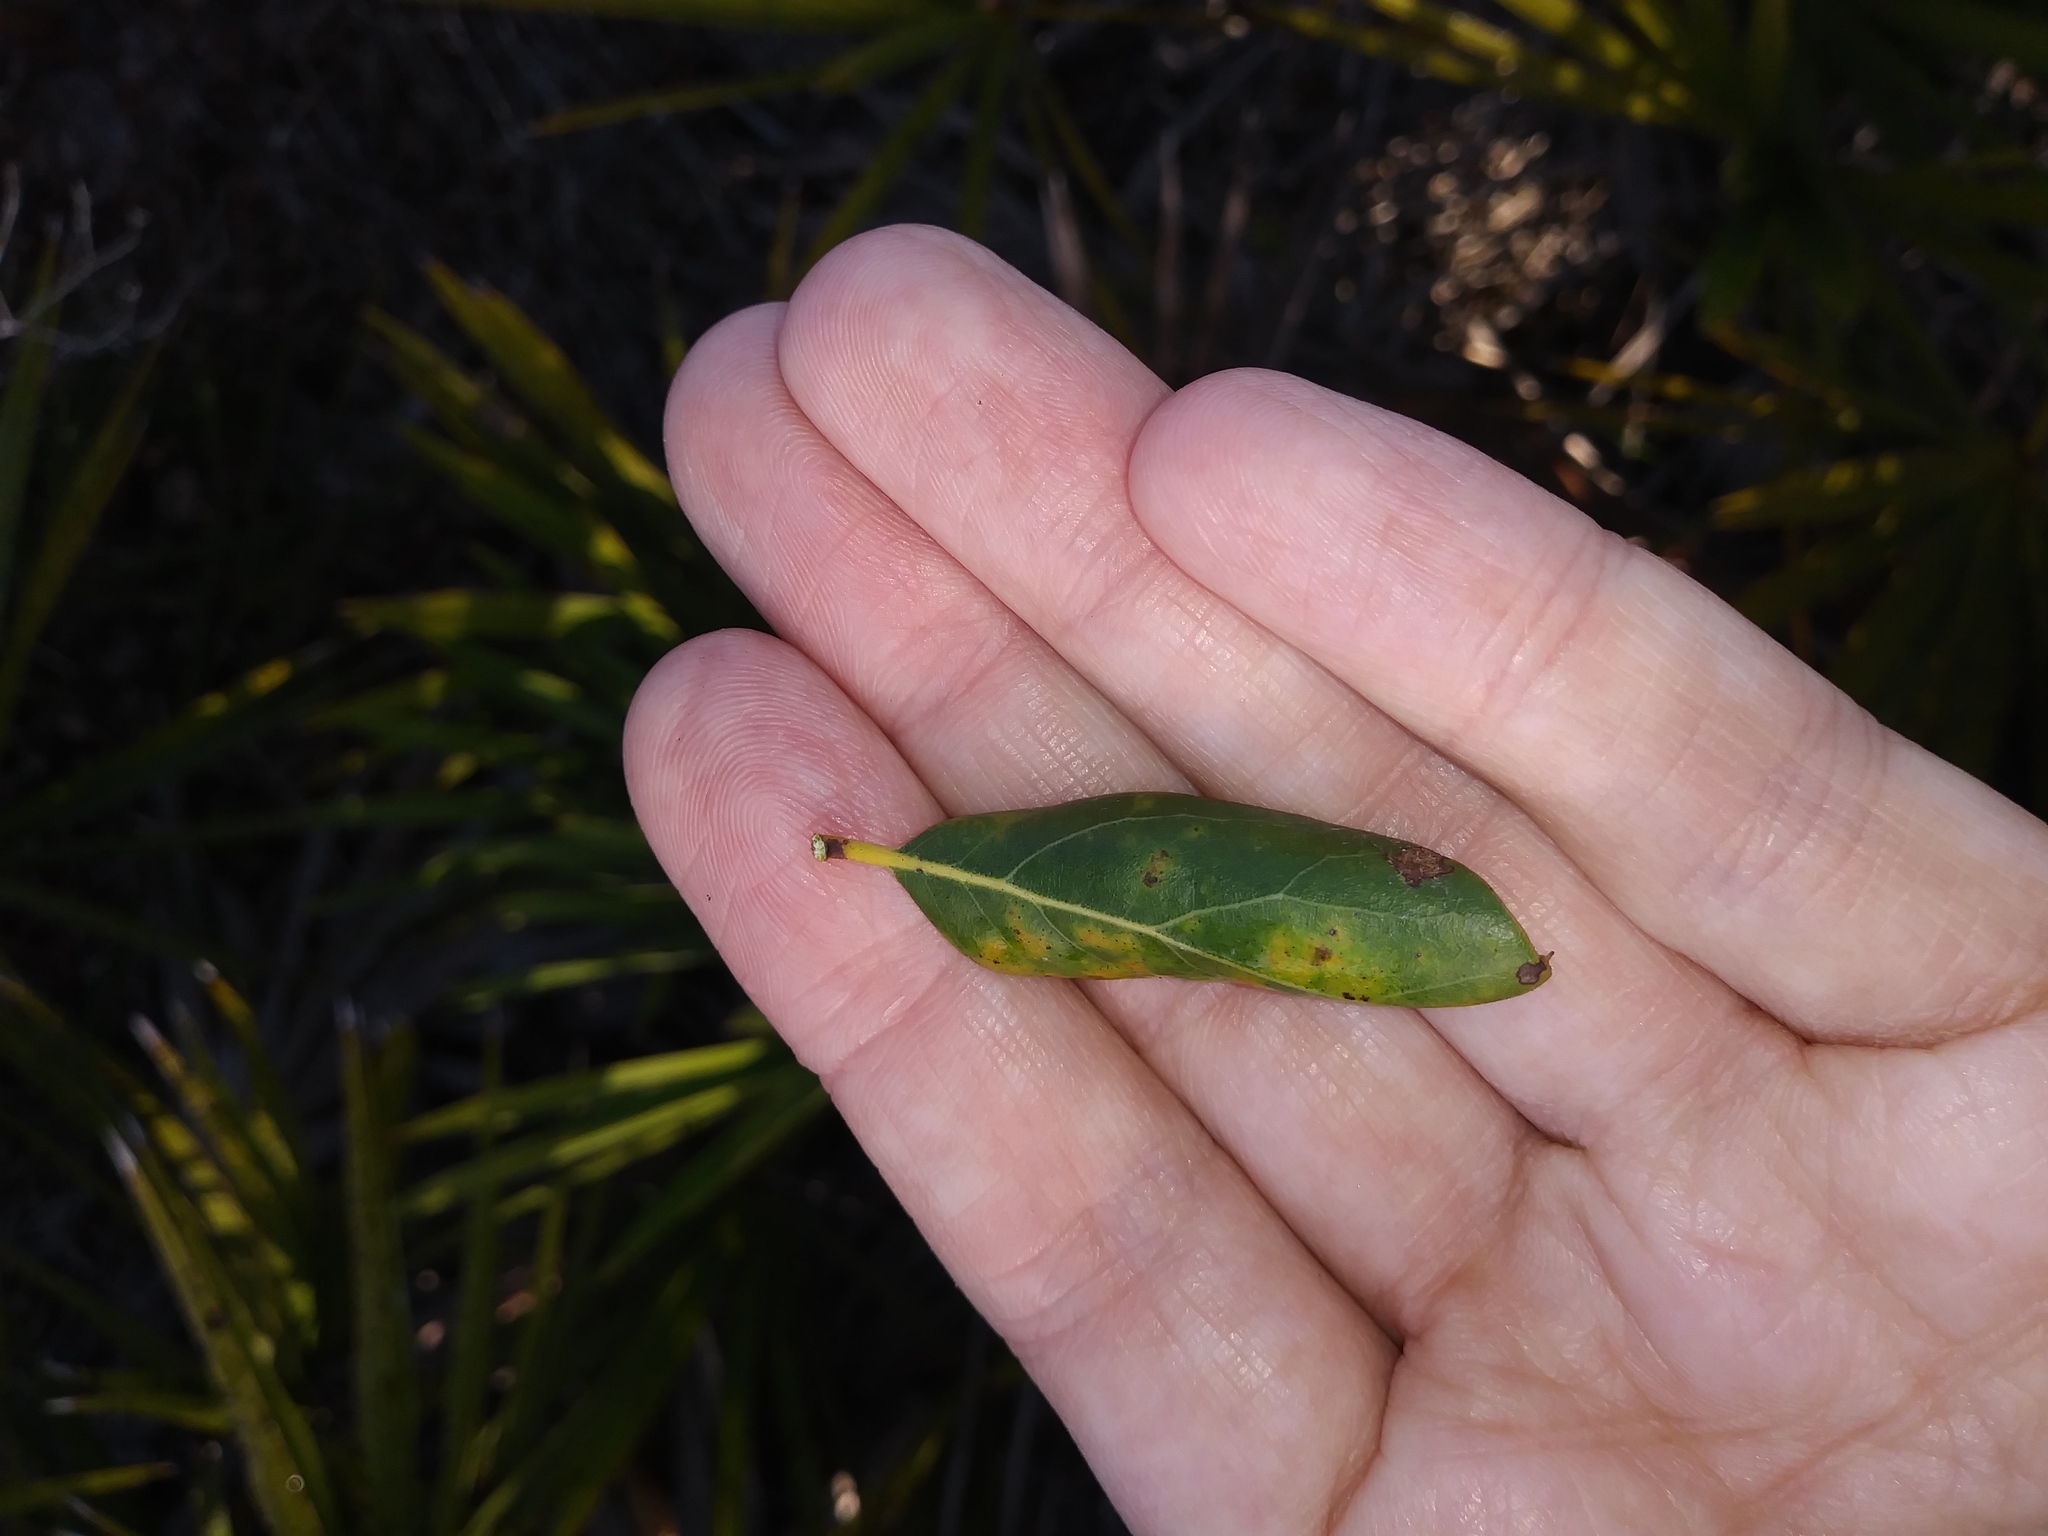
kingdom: Plantae
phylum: Tracheophyta
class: Magnoliopsida
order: Fagales
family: Fagaceae
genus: Quercus
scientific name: Quercus inopina
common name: Sandhill oak
